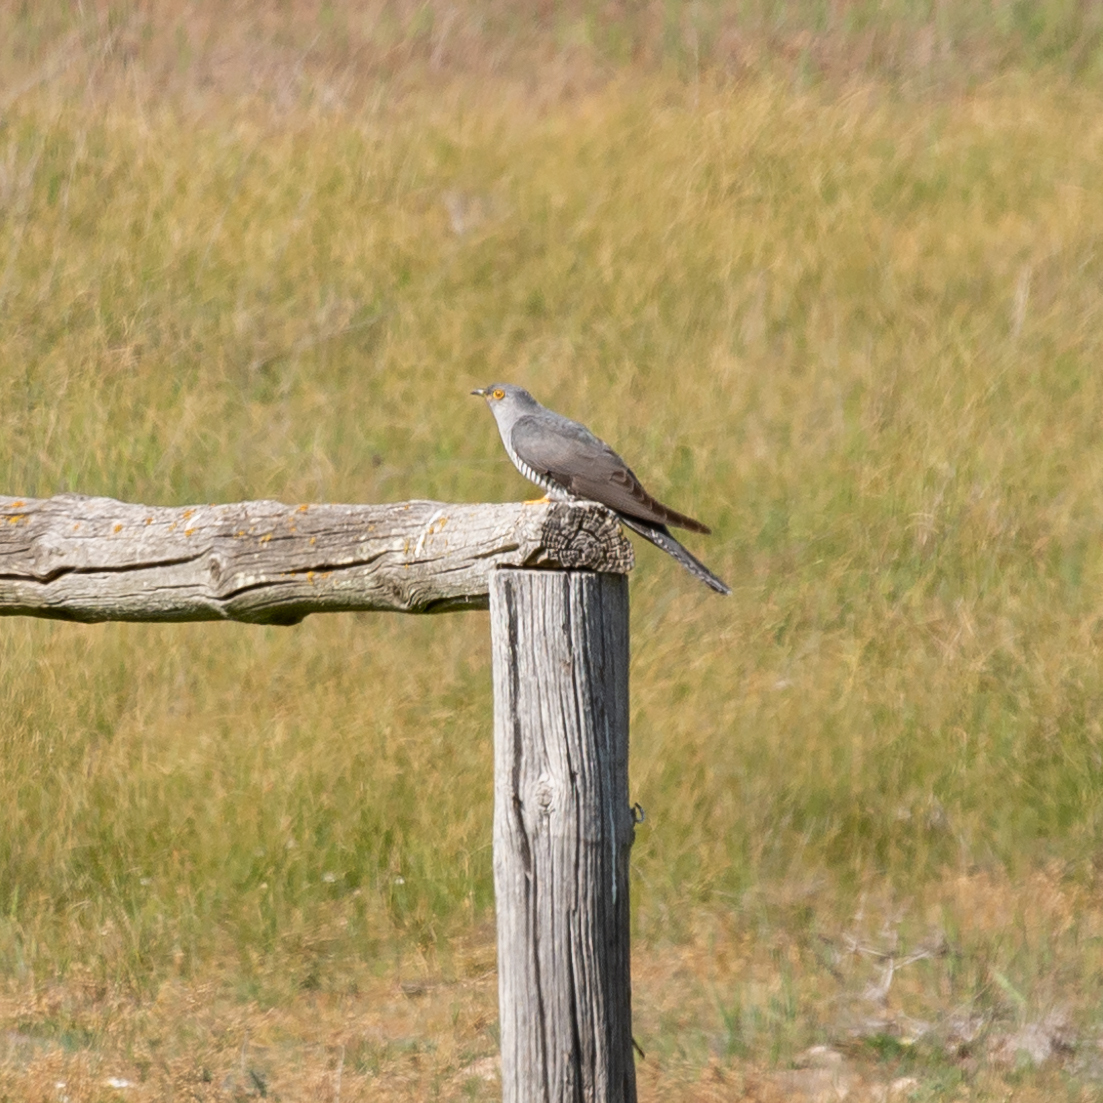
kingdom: Animalia
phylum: Chordata
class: Aves
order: Cuculiformes
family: Cuculidae
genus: Cuculus
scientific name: Cuculus canorus
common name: Common cuckoo
